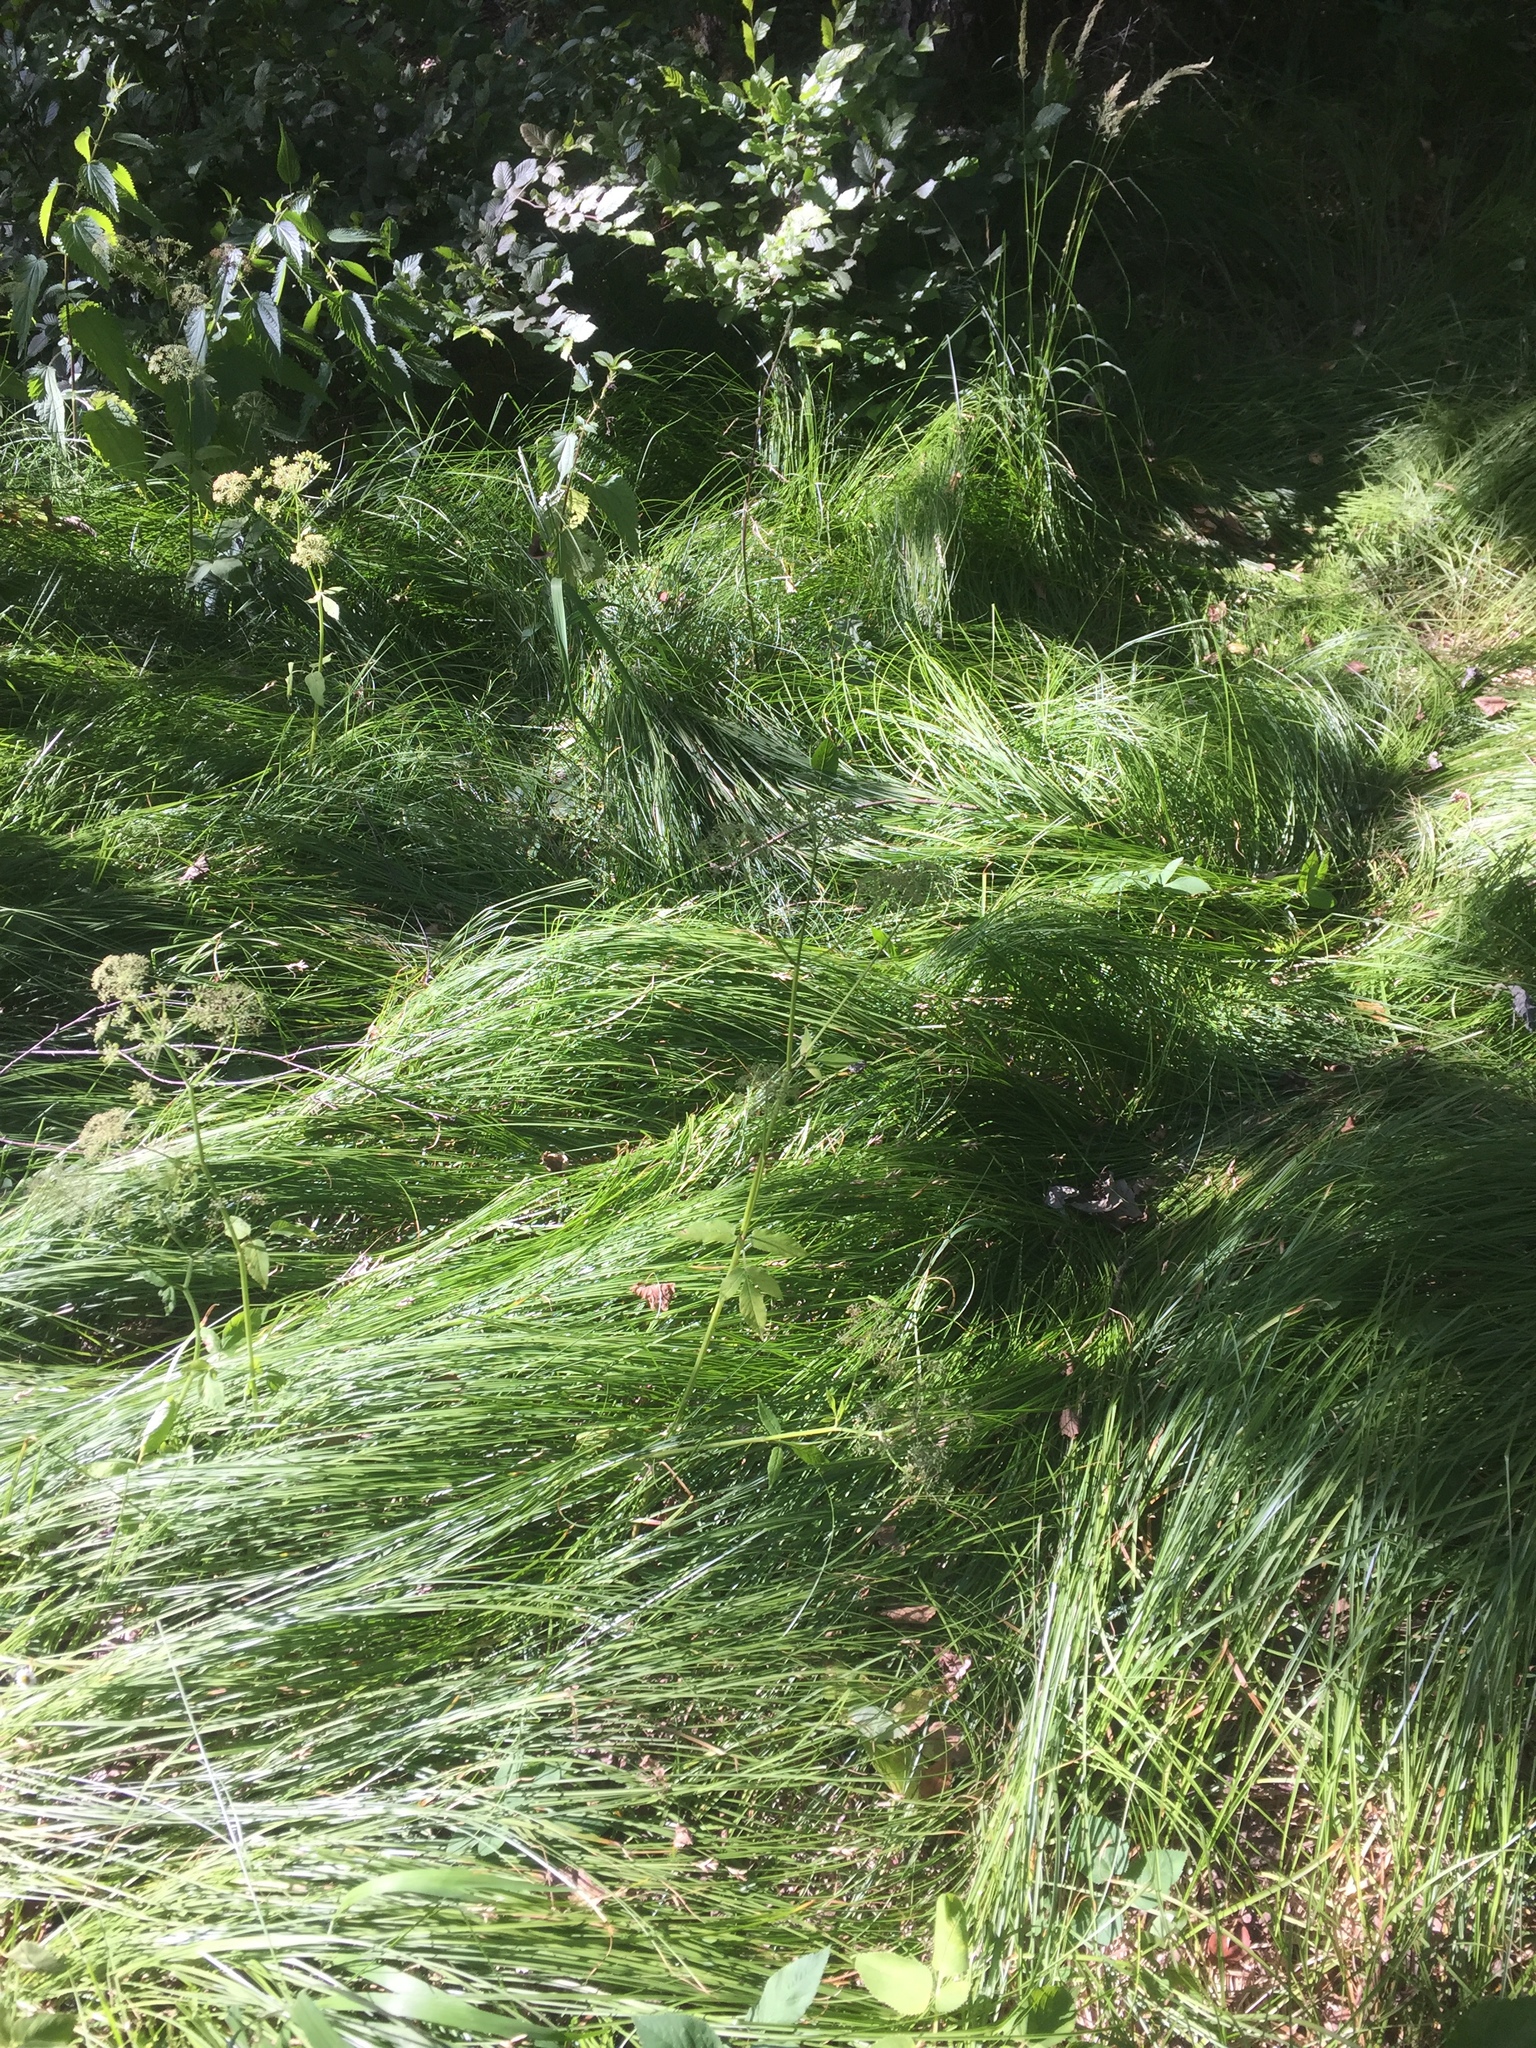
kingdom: Plantae
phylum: Tracheophyta
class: Liliopsida
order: Poales
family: Cyperaceae
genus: Carex
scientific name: Carex brizoides
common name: Quaking-grass sedge
